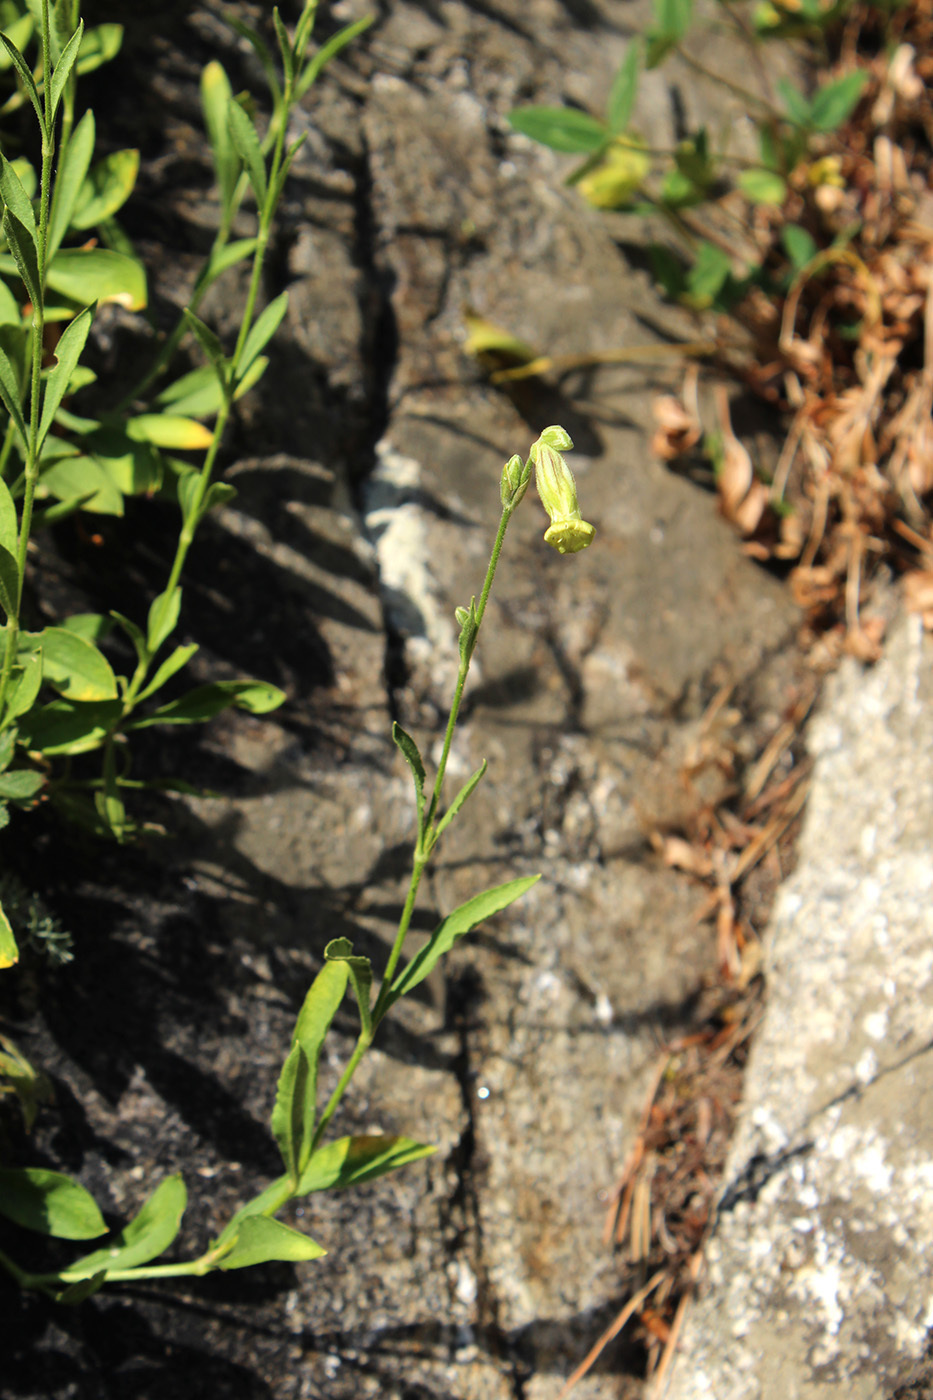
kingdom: Plantae
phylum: Tracheophyta
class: Magnoliopsida
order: Caryophyllales
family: Caryophyllaceae
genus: Silene
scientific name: Silene kubanensis
